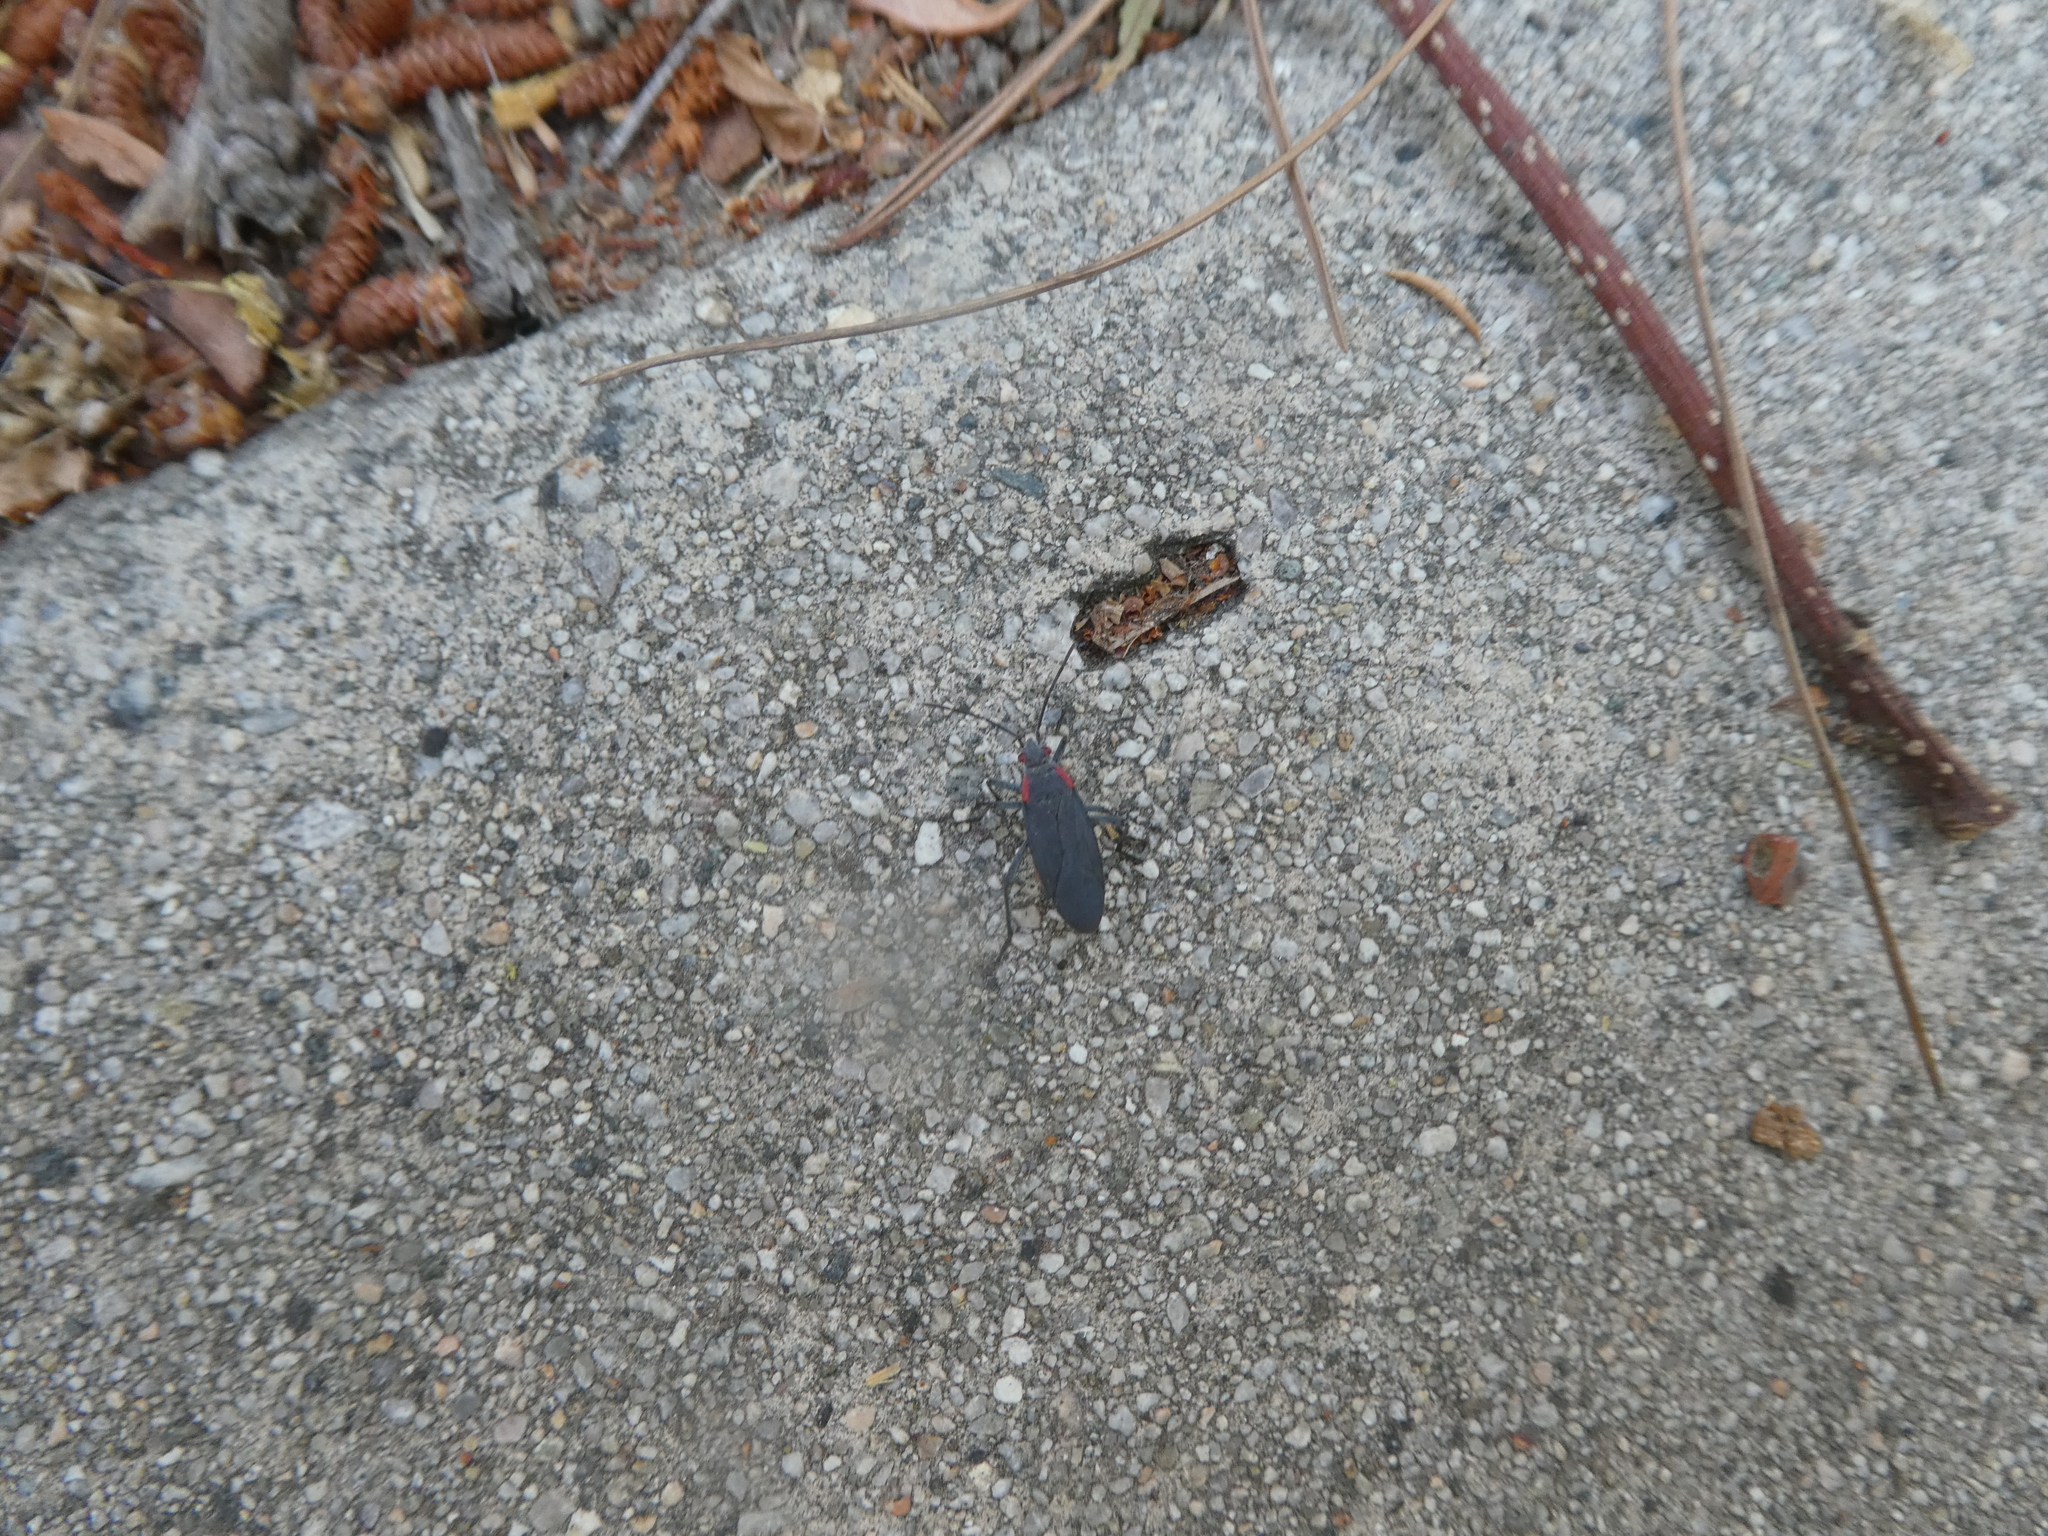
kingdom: Animalia
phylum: Arthropoda
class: Insecta
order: Hemiptera
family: Rhopalidae
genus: Jadera
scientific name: Jadera haematoloma
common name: Red-shouldered bug
